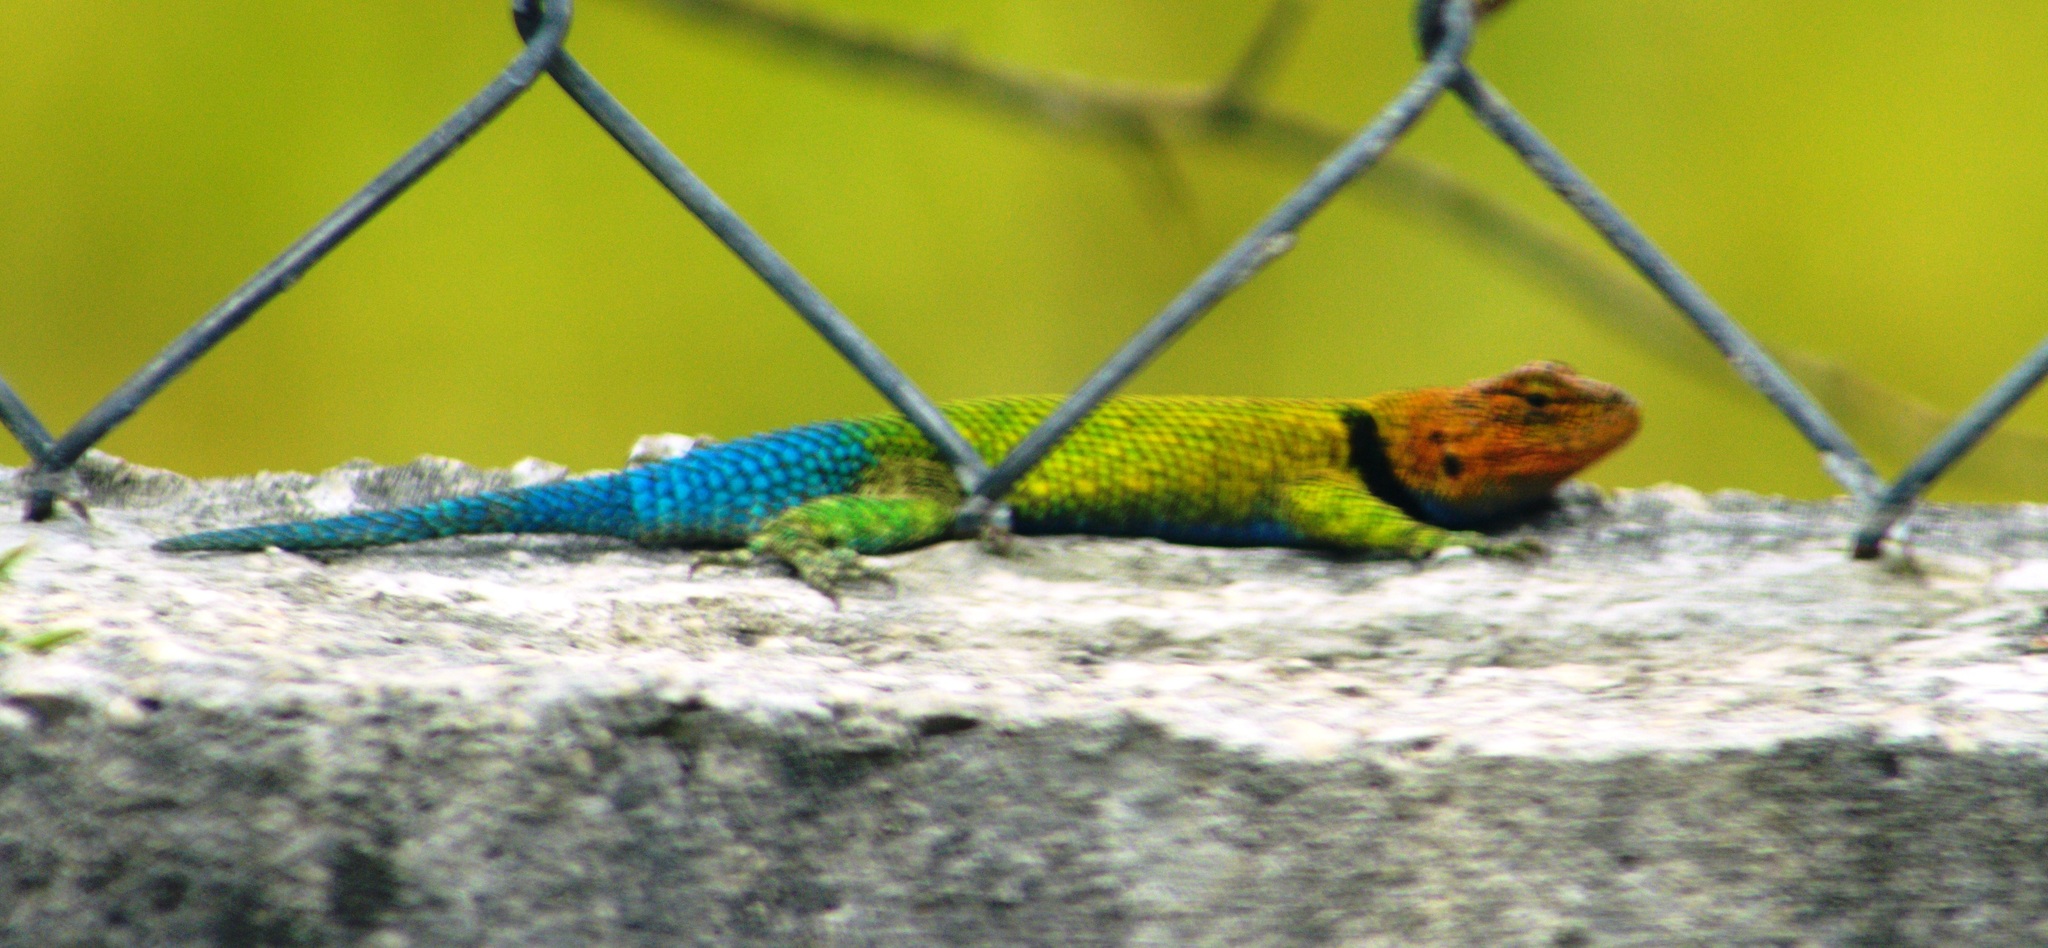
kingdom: Animalia
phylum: Chordata
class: Squamata
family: Phrynosomatidae
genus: Sceloporus
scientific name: Sceloporus taeniocnemis
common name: Guatemalan emerald spiny lizard
